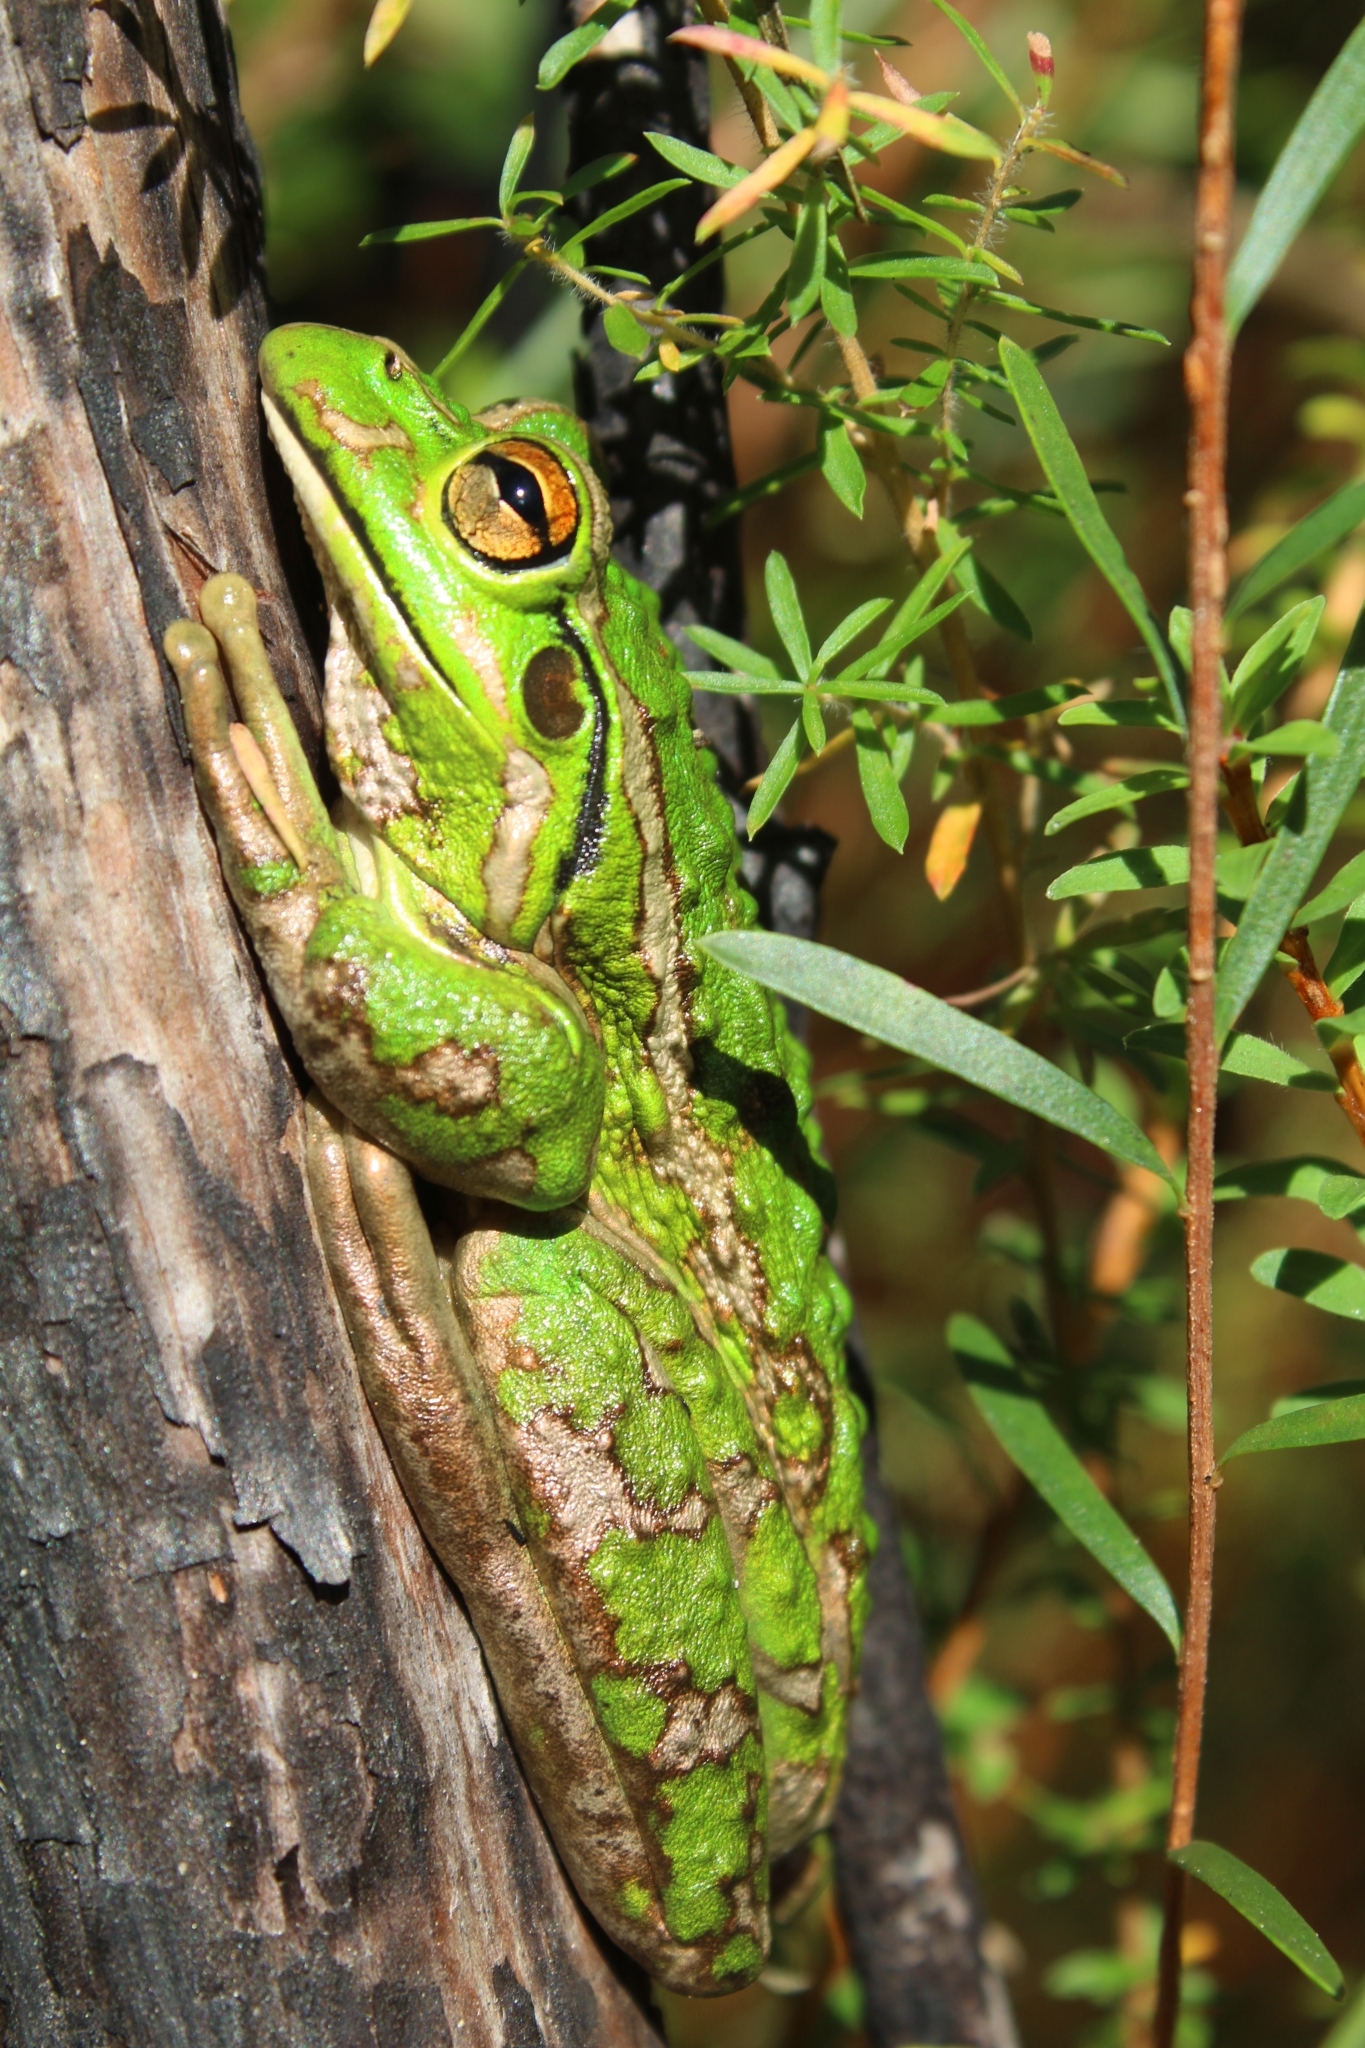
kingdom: Animalia
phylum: Chordata
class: Amphibia
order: Anura
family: Pelodryadidae
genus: Ranoidea
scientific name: Ranoidea moorei
